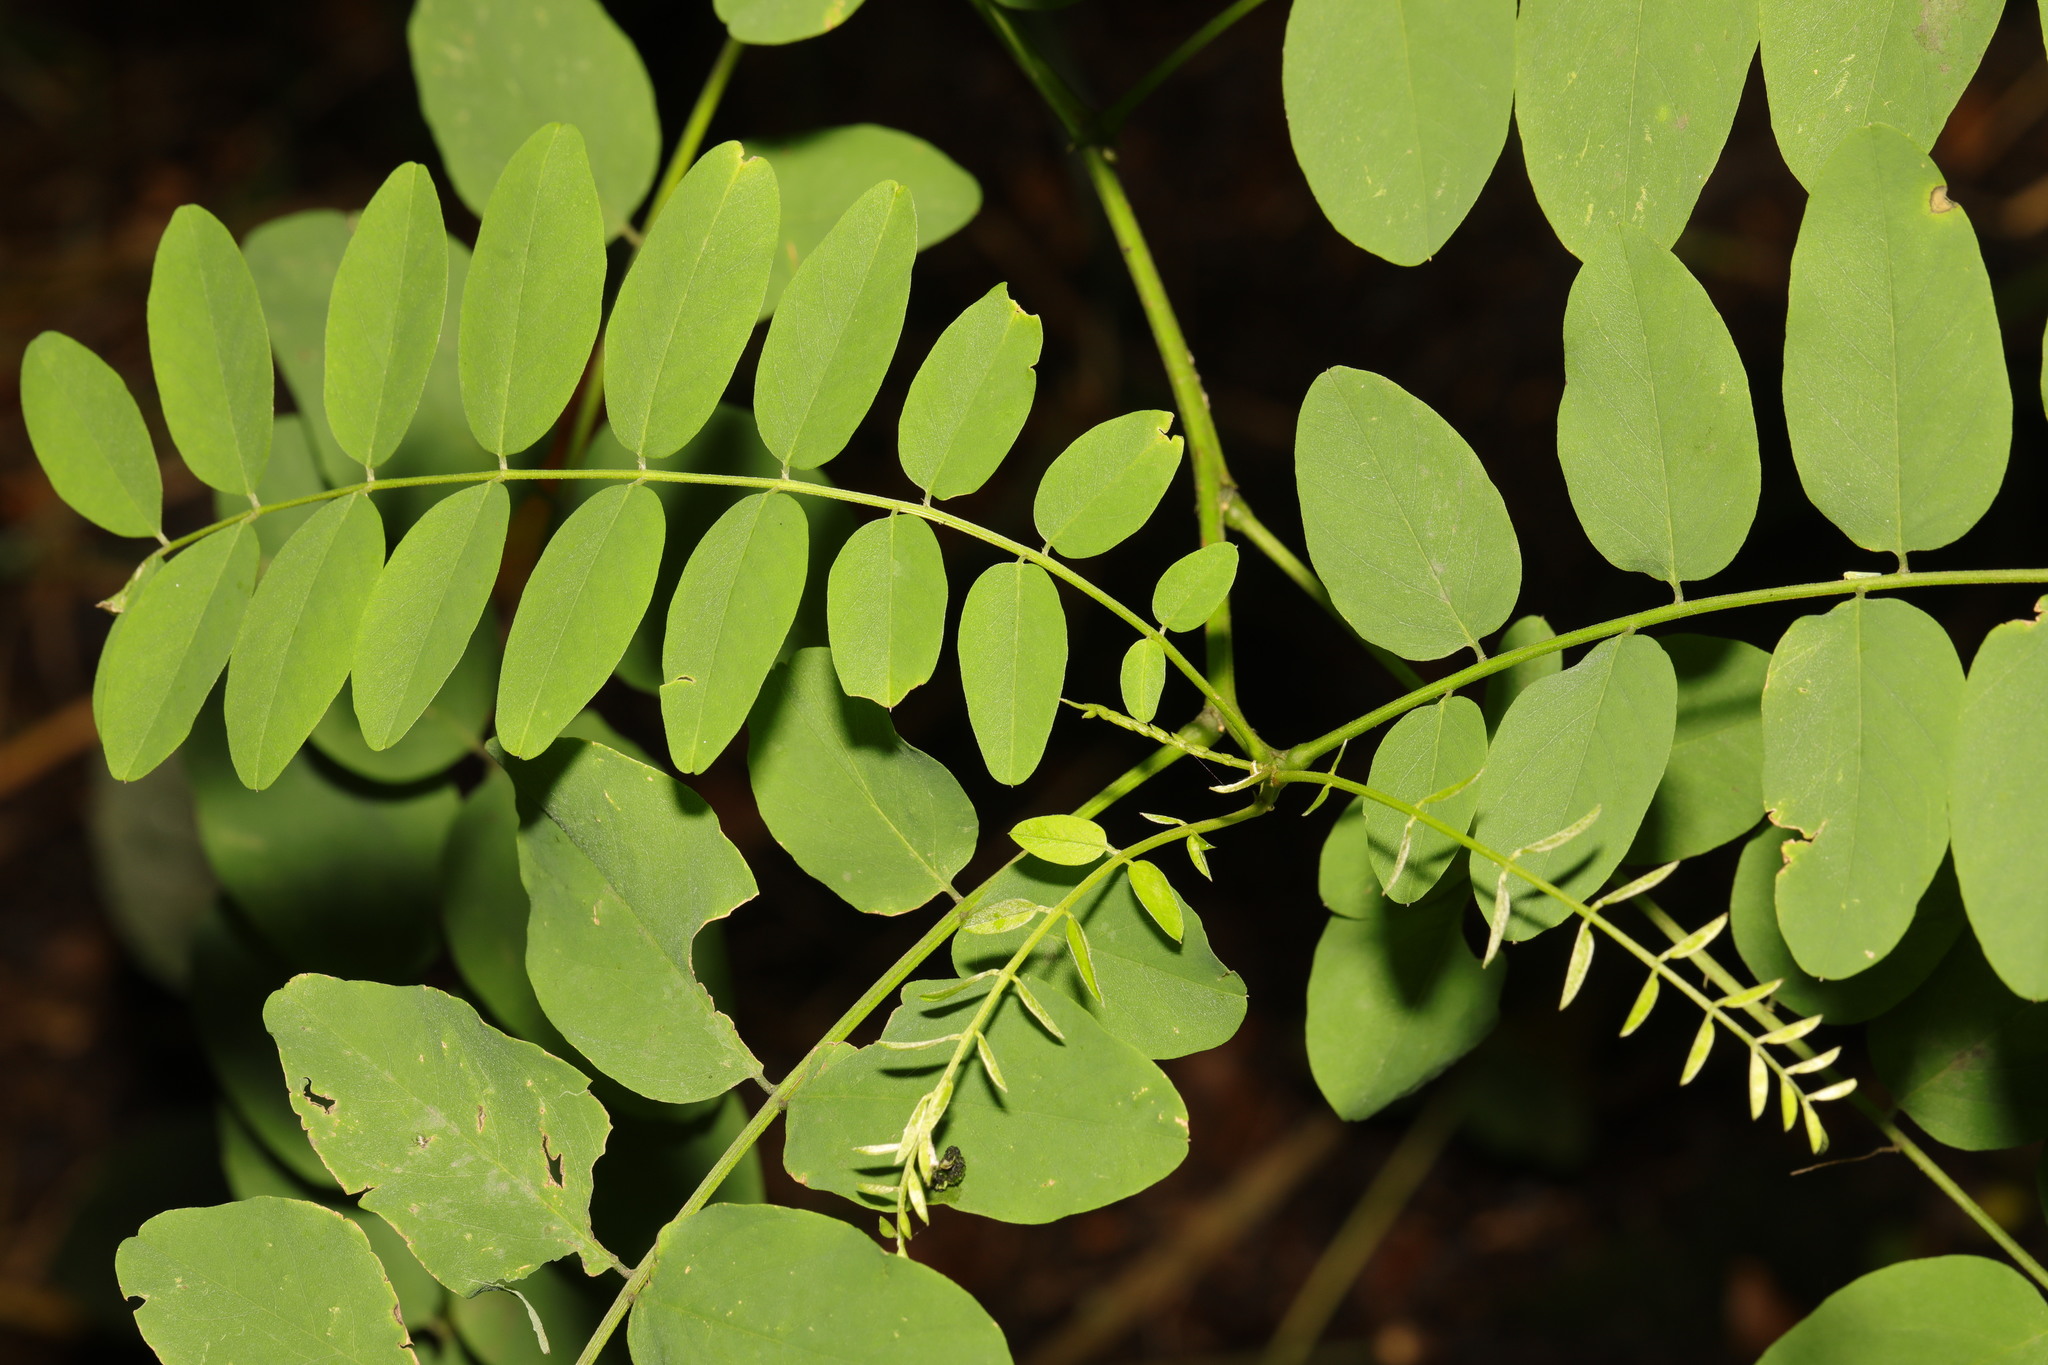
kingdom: Plantae
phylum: Tracheophyta
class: Magnoliopsida
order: Fabales
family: Fabaceae
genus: Robinia
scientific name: Robinia pseudoacacia
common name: Black locust
